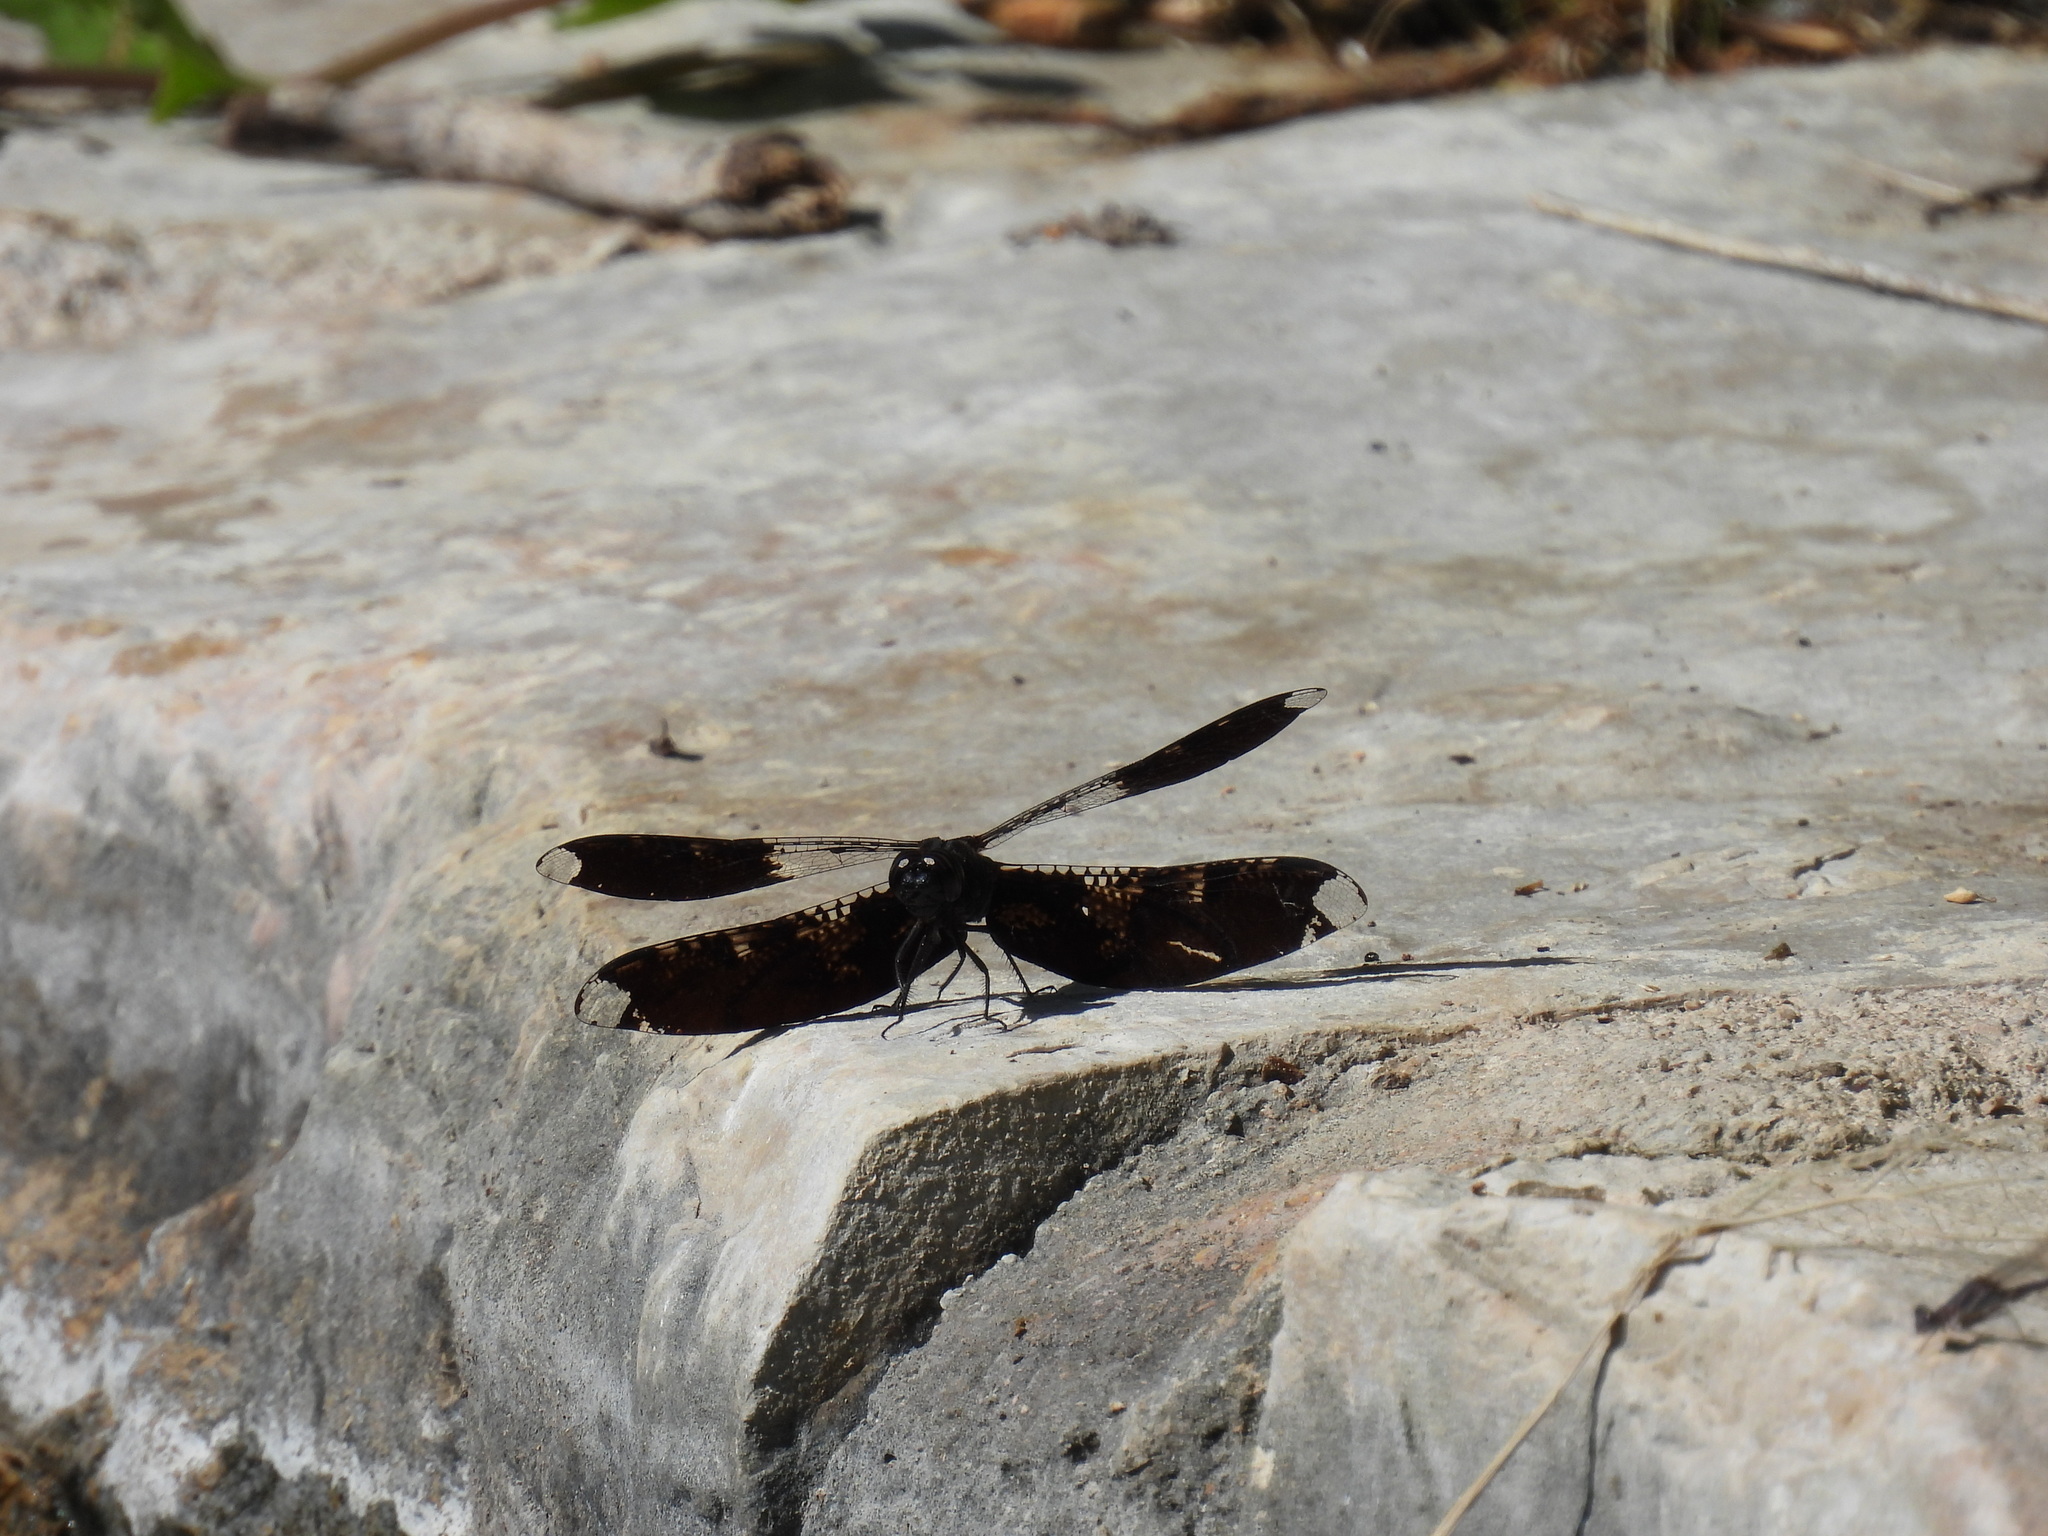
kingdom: Animalia
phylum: Arthropoda
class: Insecta
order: Odonata
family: Libellulidae
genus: Pseudoleon
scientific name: Pseudoleon superbus
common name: Filigree skimmer
